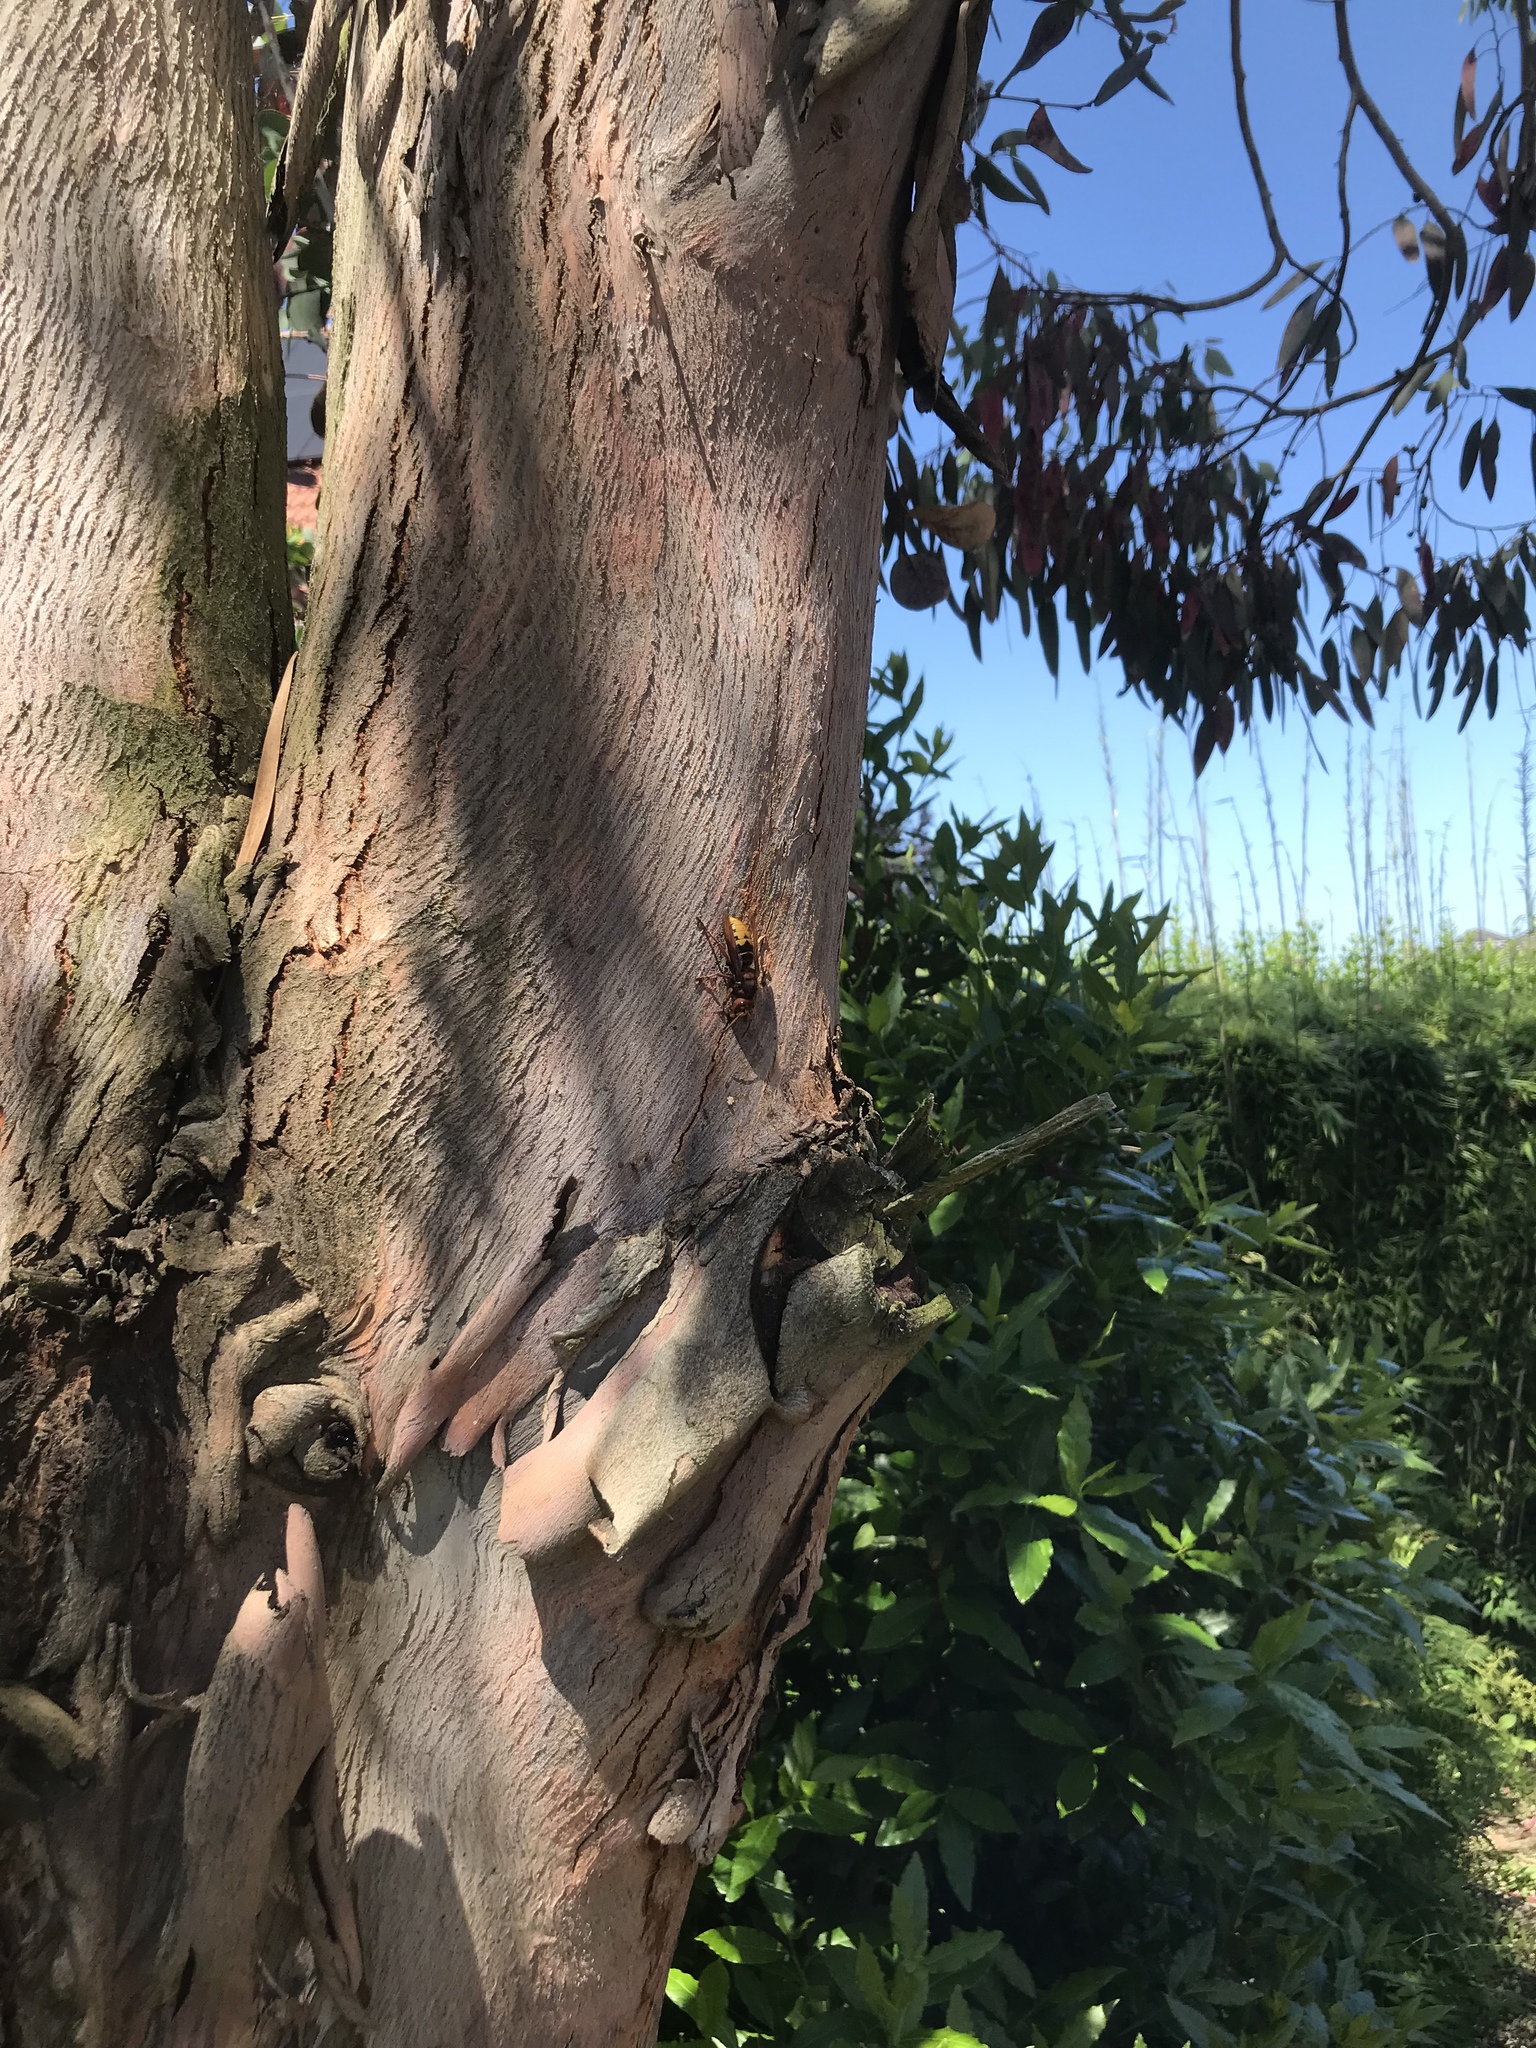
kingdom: Animalia
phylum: Arthropoda
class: Insecta
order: Hymenoptera
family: Vespidae
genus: Vespa
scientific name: Vespa crabro
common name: Hornet
